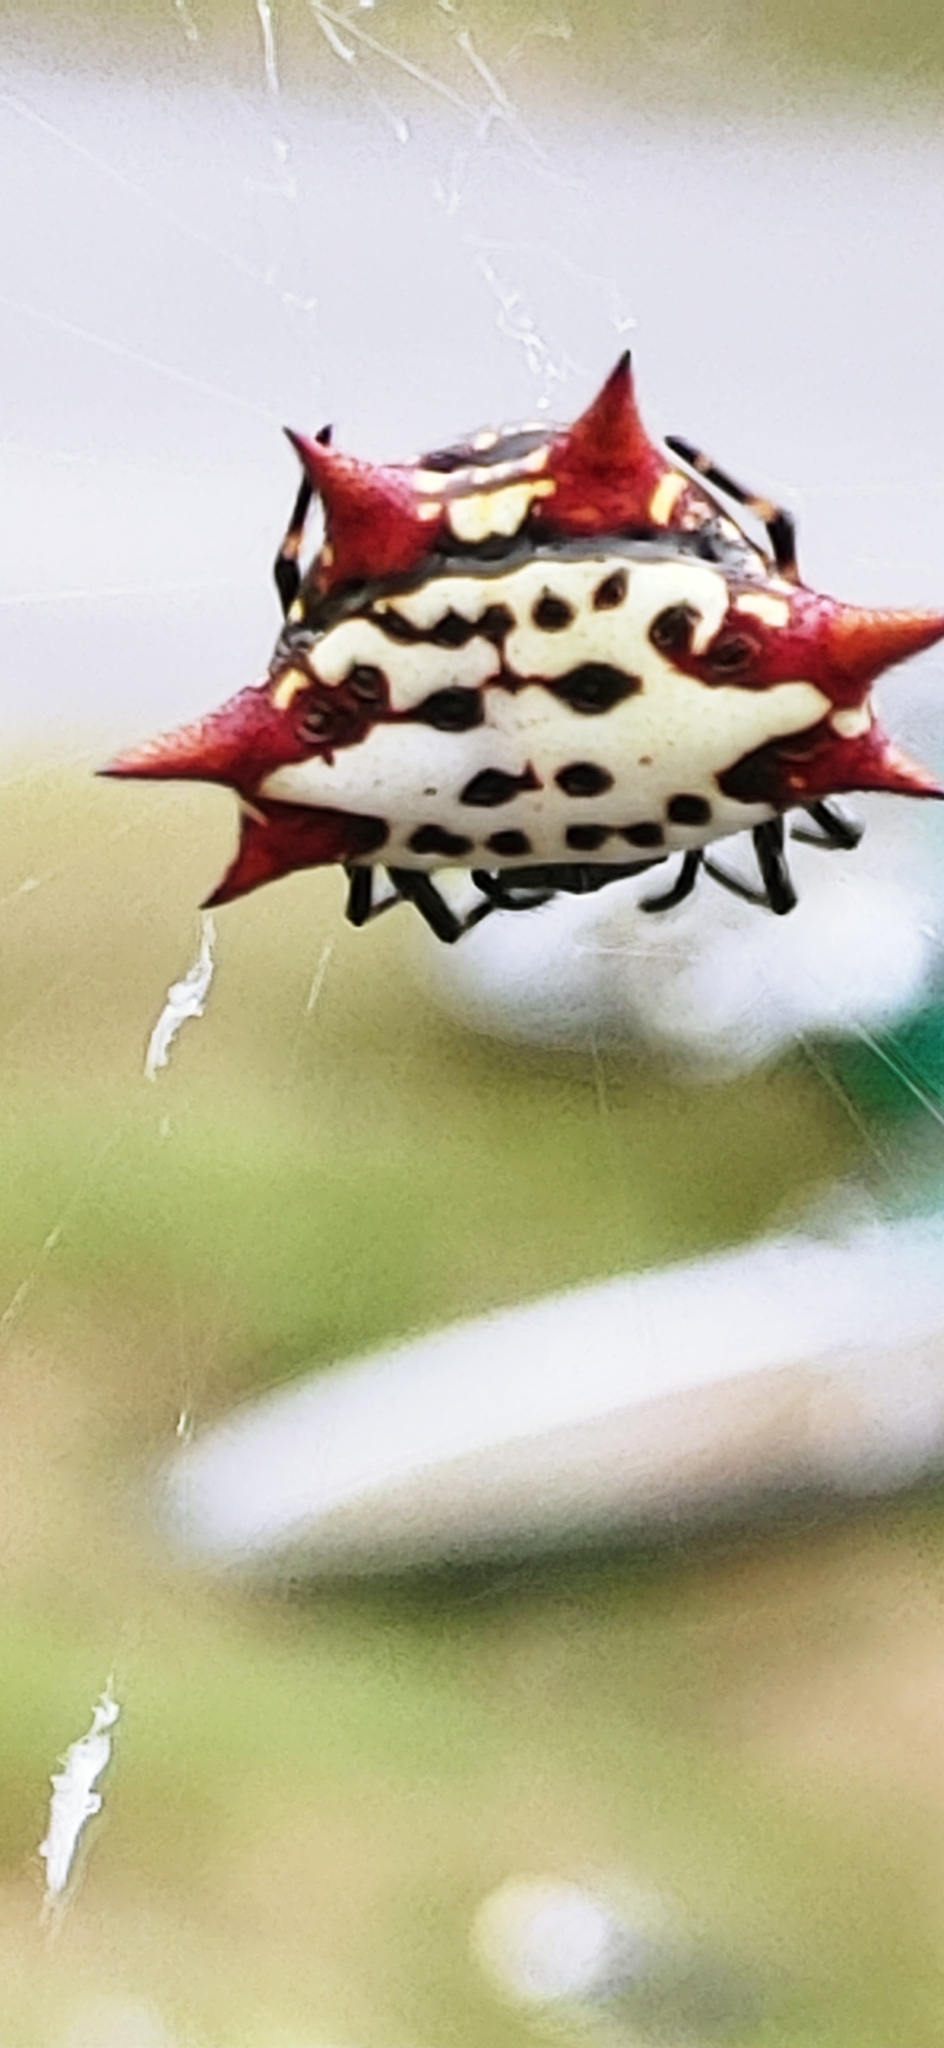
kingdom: Animalia
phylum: Arthropoda
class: Arachnida
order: Araneae
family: Araneidae
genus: Gasteracantha
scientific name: Gasteracantha cancriformis
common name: Orb weavers
